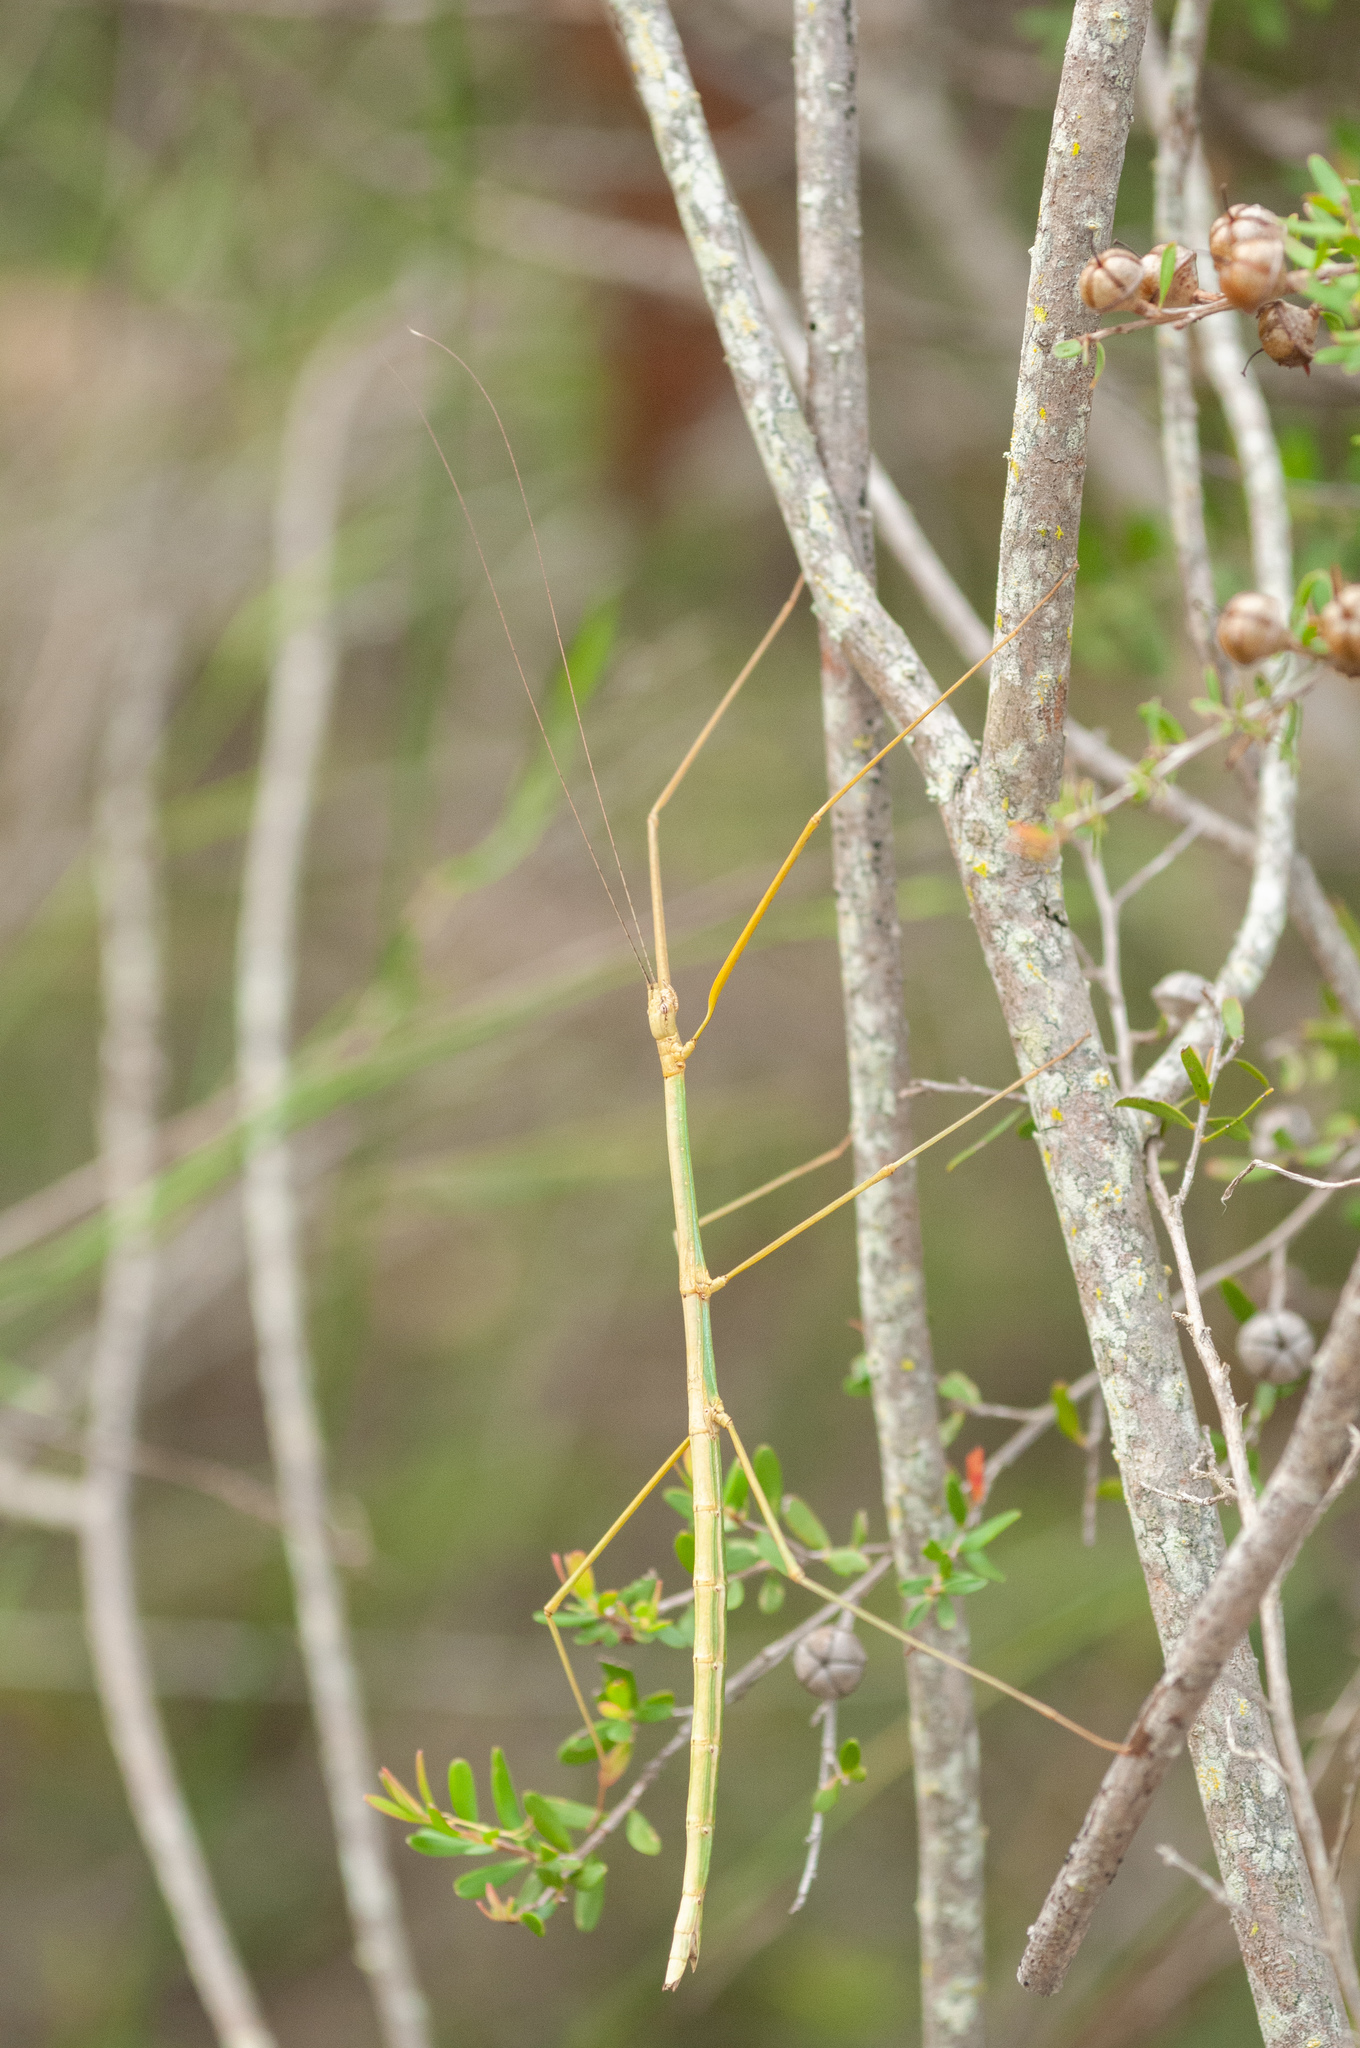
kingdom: Animalia
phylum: Arthropoda
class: Insecta
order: Phasmida
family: Lonchodidae
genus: Candovia
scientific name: Candovia aberrata
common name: Aberrant stick-insect
